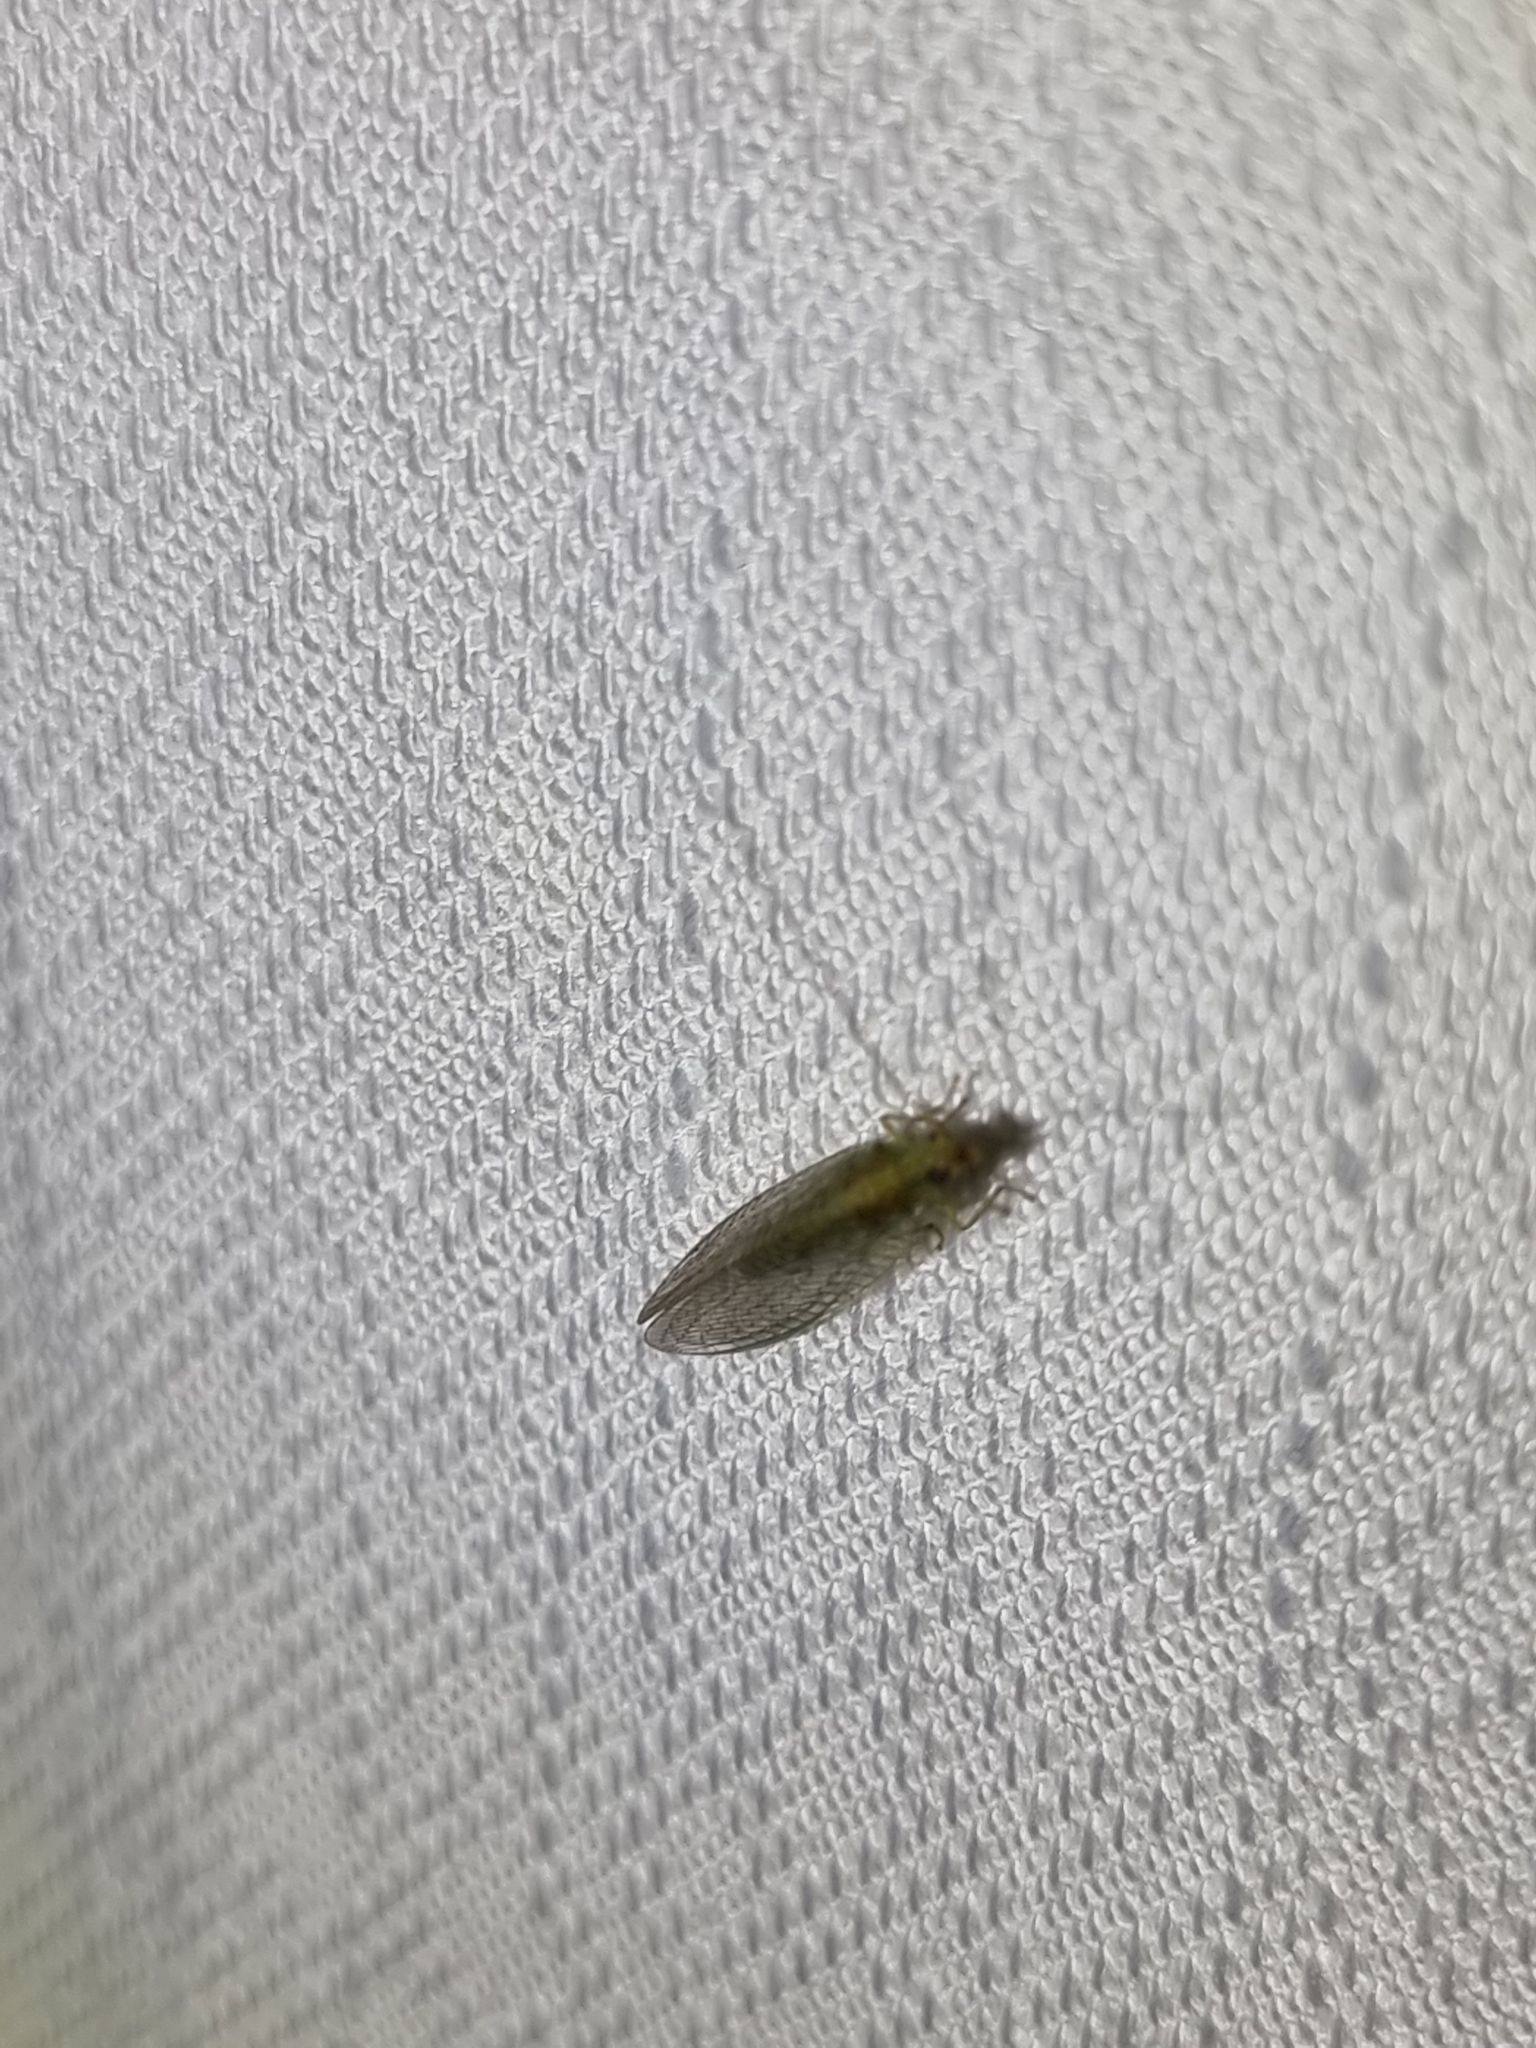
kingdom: Animalia
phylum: Arthropoda
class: Insecta
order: Neuroptera
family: Chrysopidae
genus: Dictyochrysa
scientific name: Dictyochrysa peterseni
